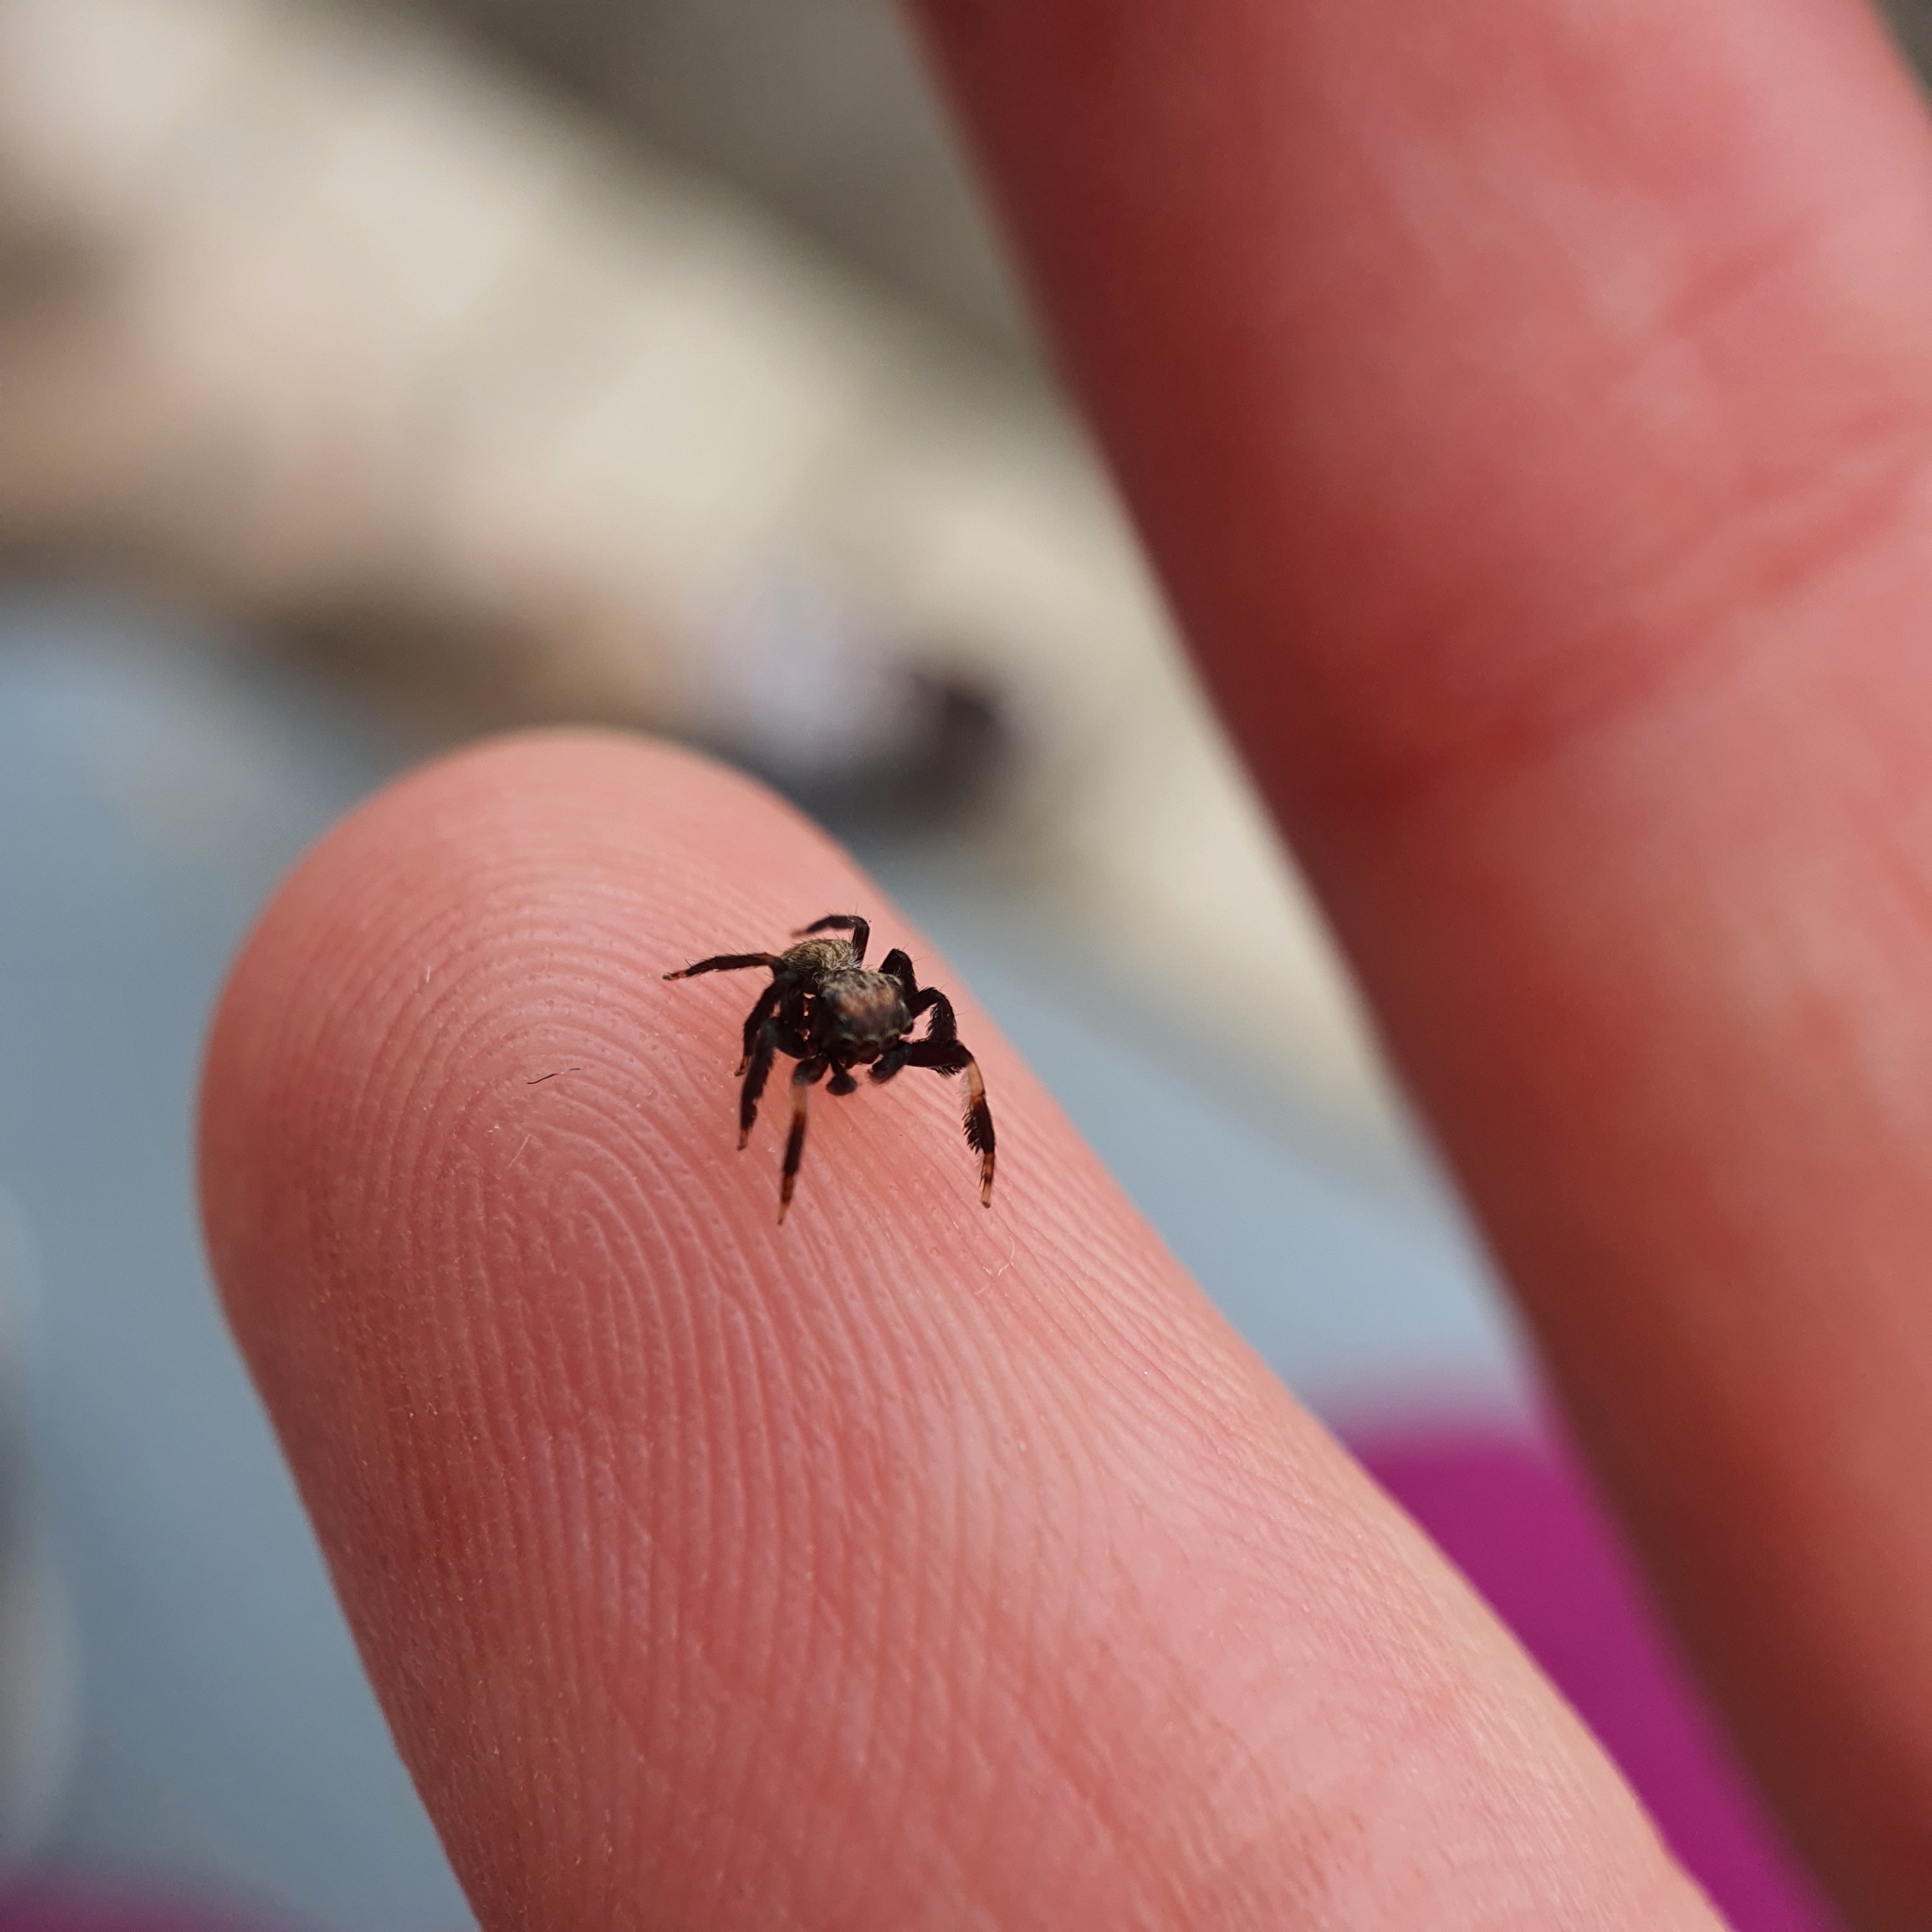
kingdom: Animalia
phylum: Arthropoda
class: Arachnida
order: Araneae
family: Salticidae
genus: Neon
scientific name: Neon australis
